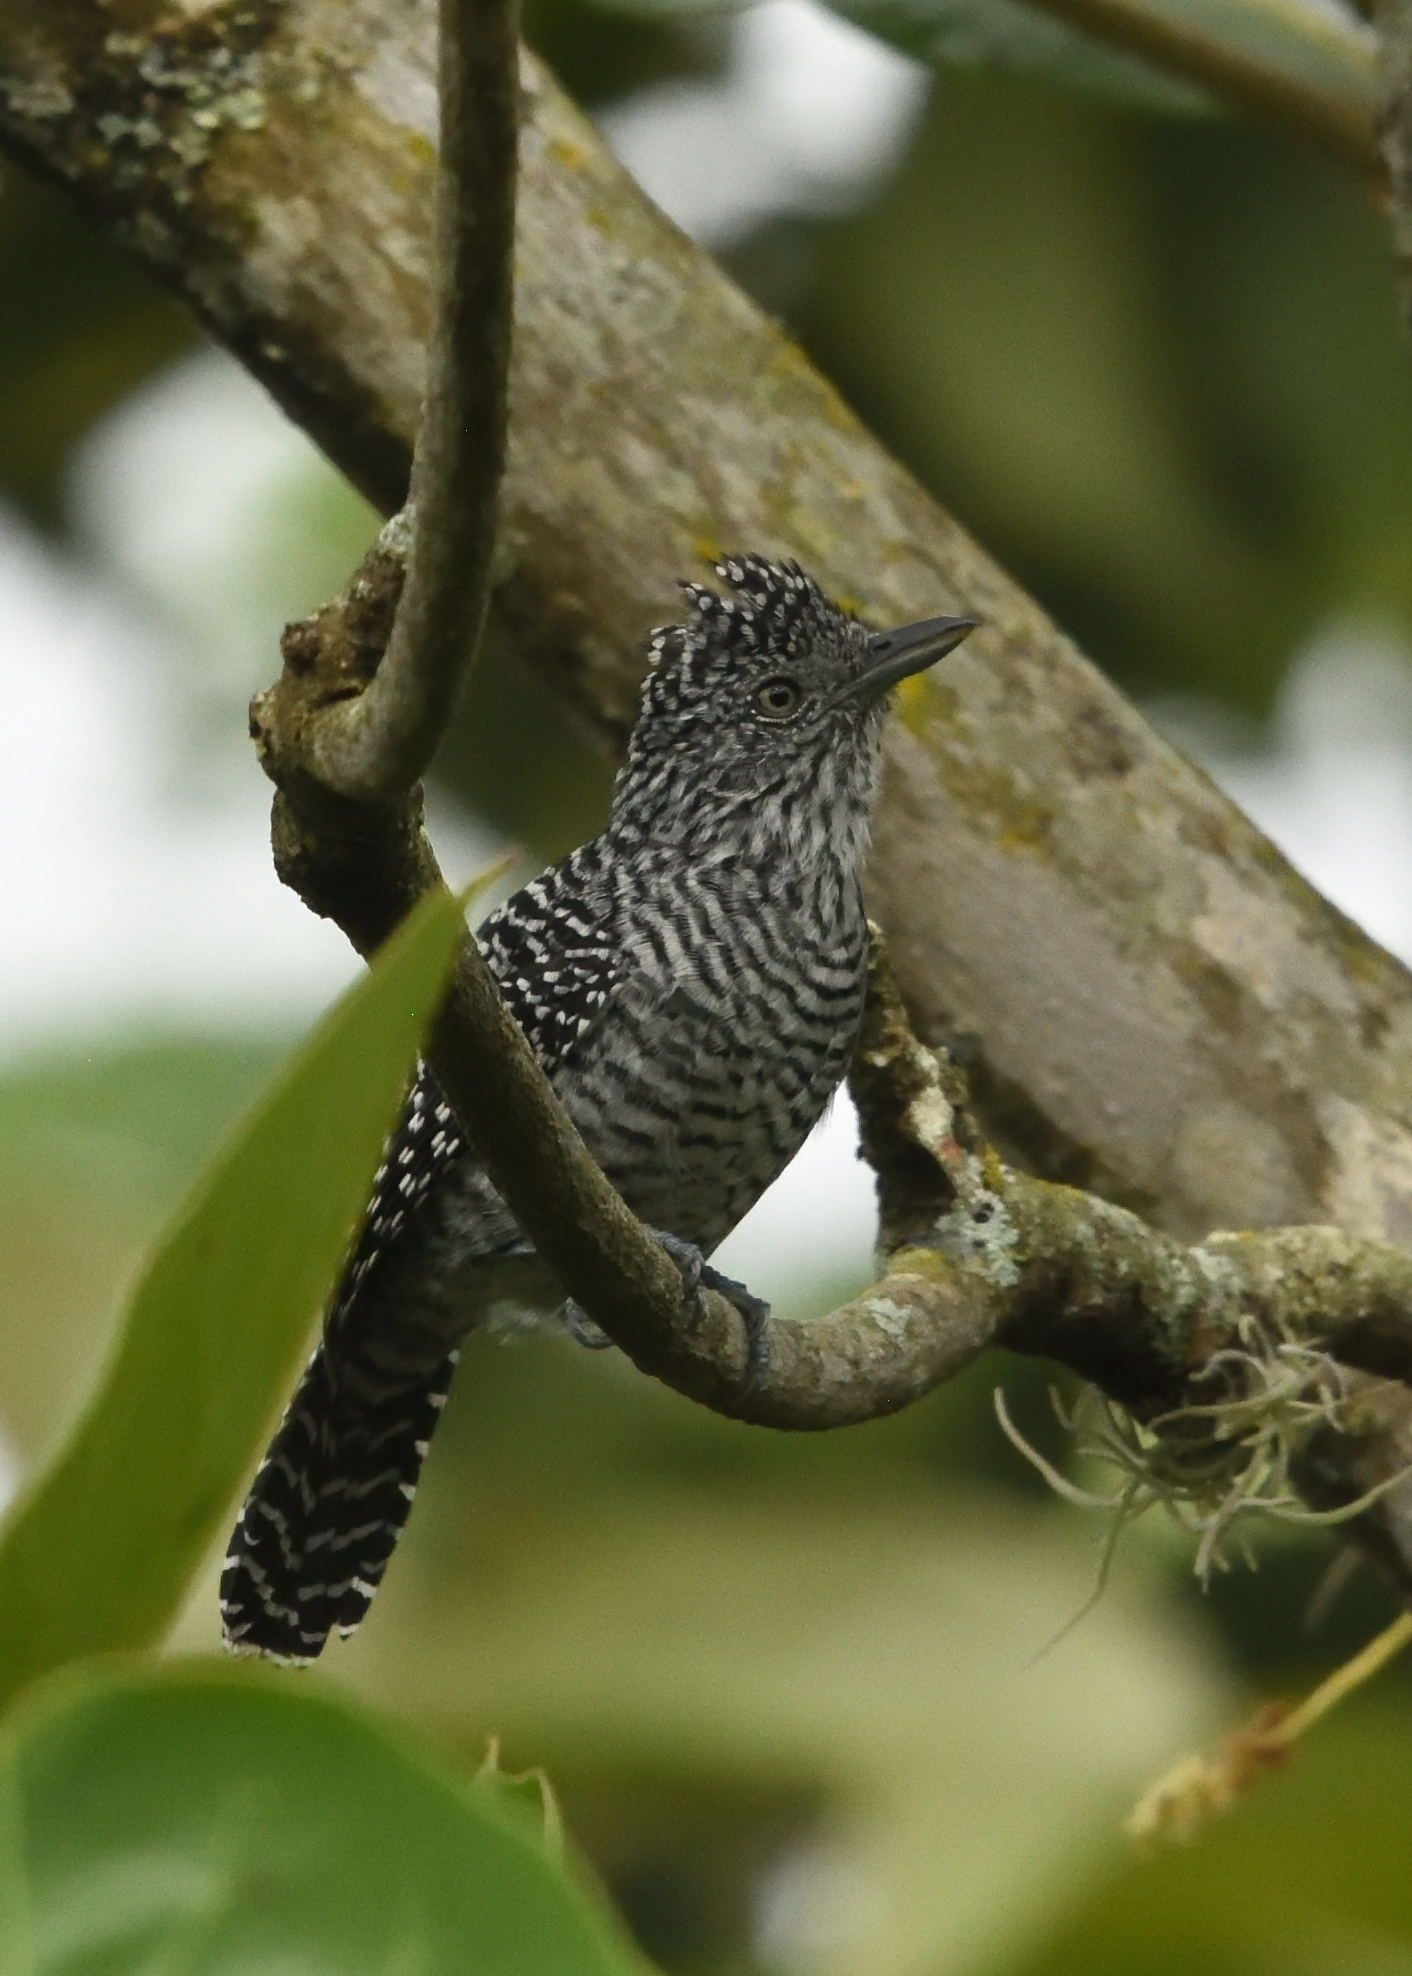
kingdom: Animalia
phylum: Chordata
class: Aves
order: Passeriformes
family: Thamnophilidae
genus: Thamnophilus
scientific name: Thamnophilus multistriatus
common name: Bar-crested antshrike
